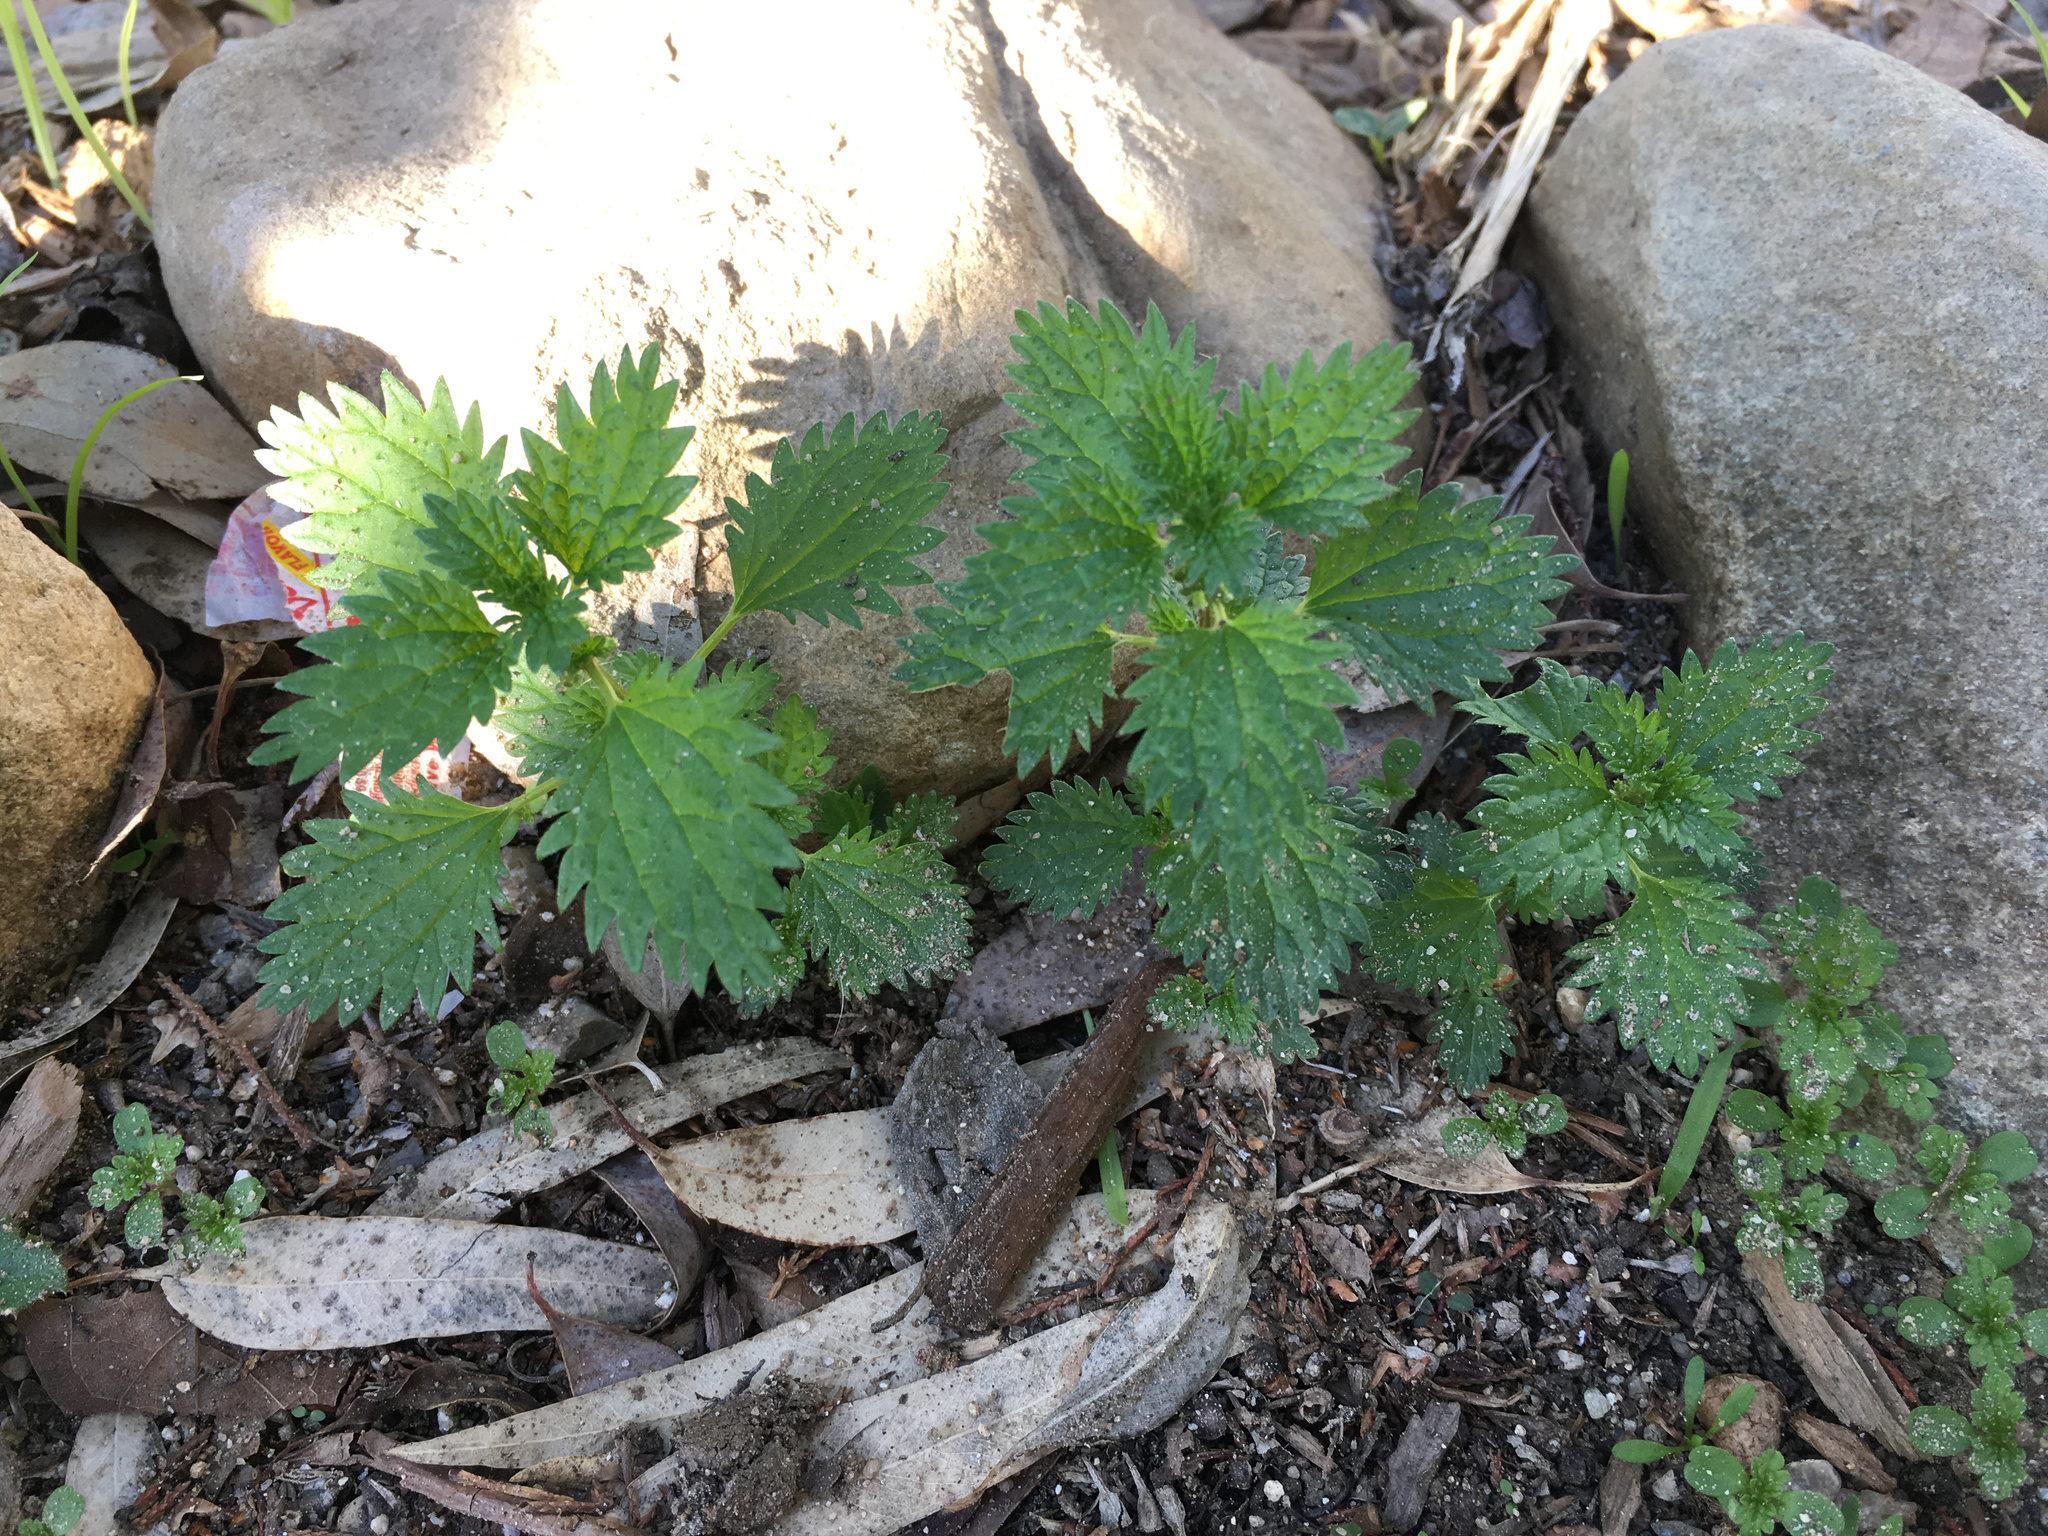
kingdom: Plantae
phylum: Tracheophyta
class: Magnoliopsida
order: Rosales
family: Urticaceae
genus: Urtica
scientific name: Urtica urens
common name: Dwarf nettle
